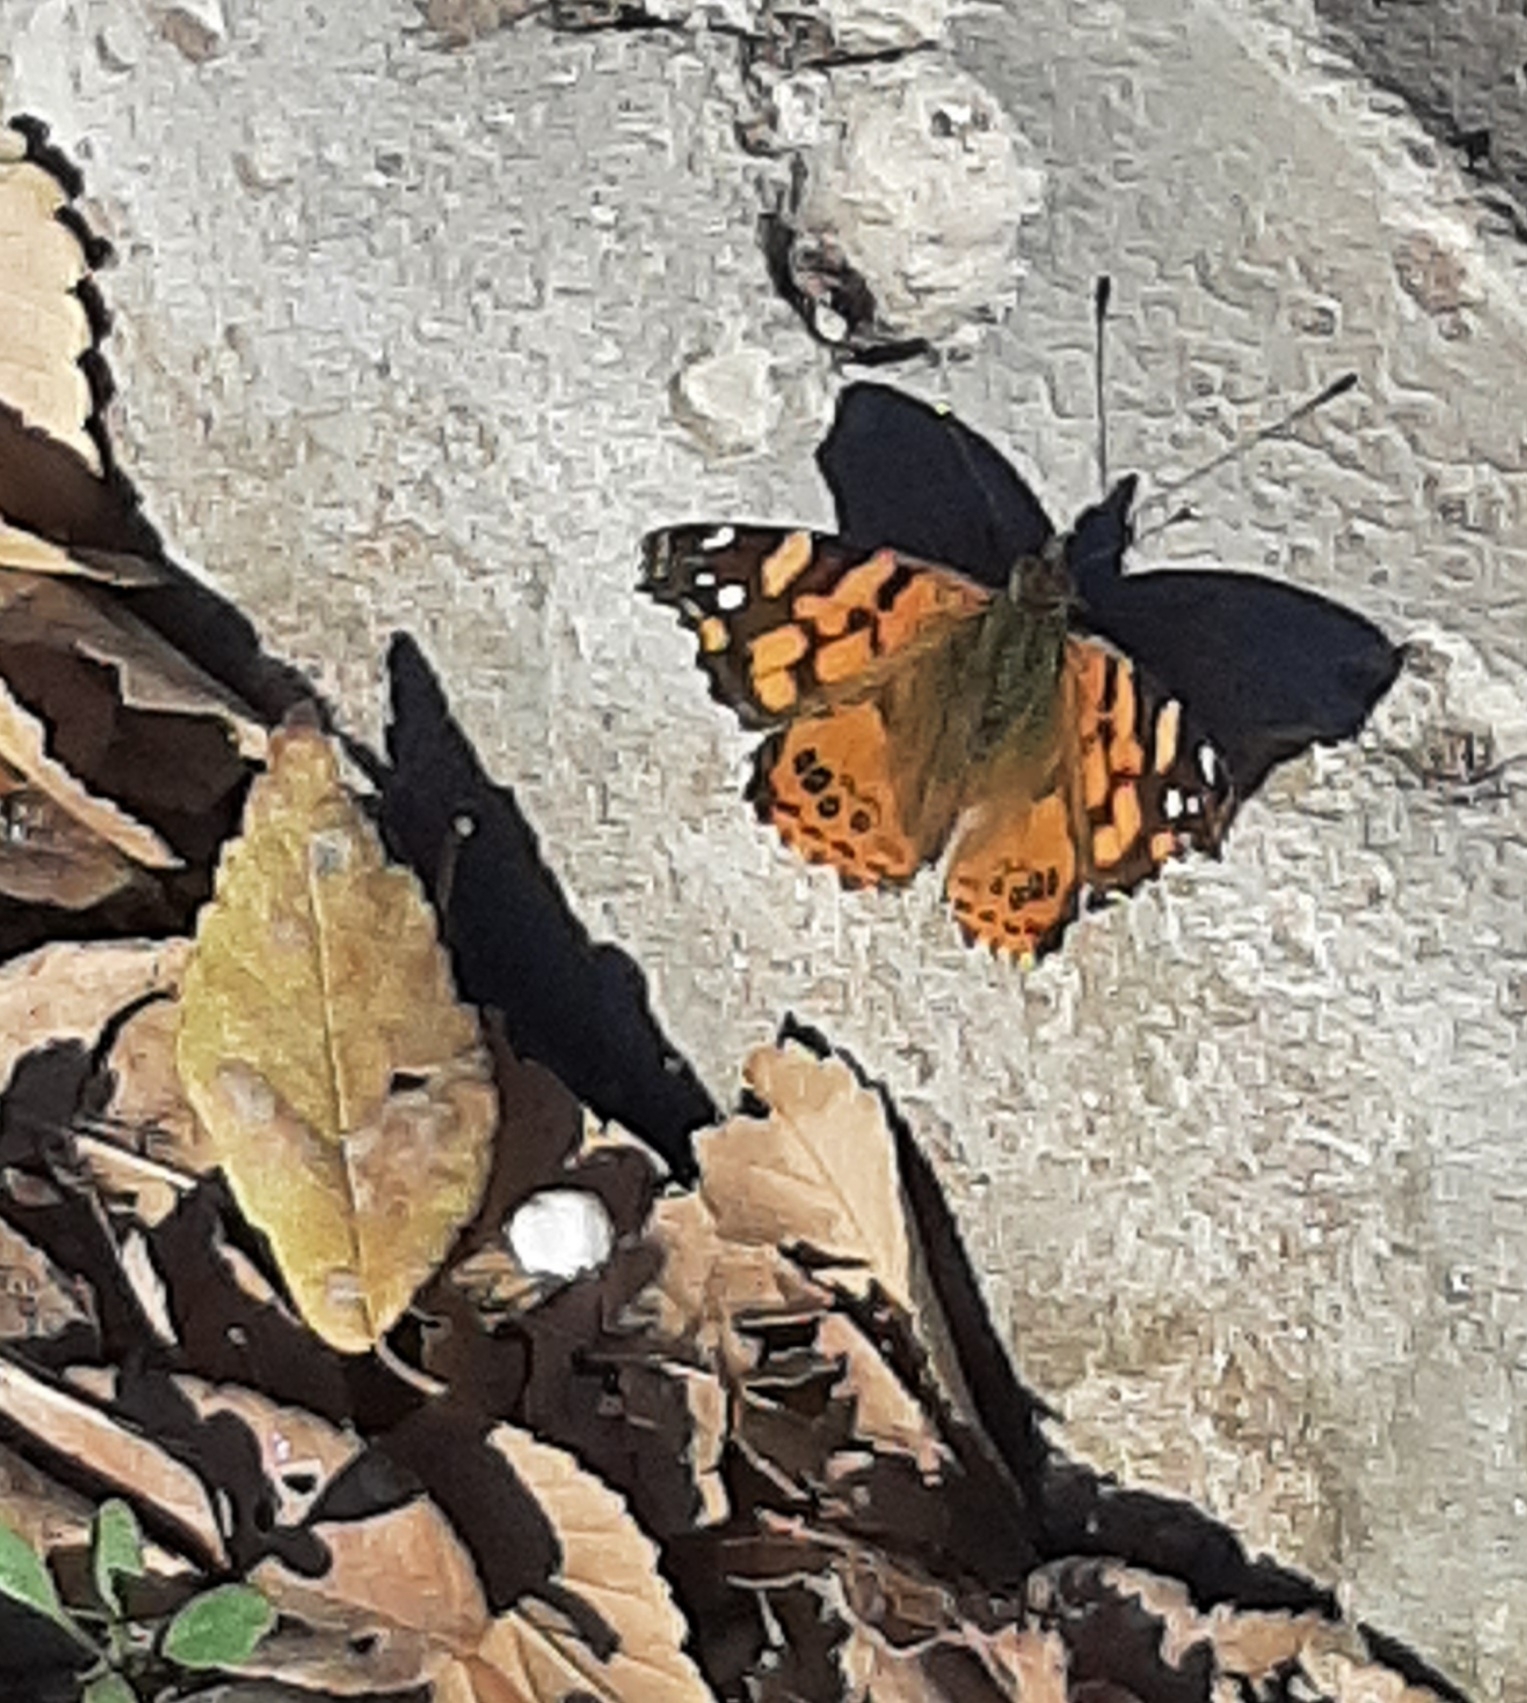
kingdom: Animalia
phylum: Arthropoda
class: Insecta
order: Lepidoptera
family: Nymphalidae
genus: Vanessa
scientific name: Vanessa carye
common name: Subtropical lady
